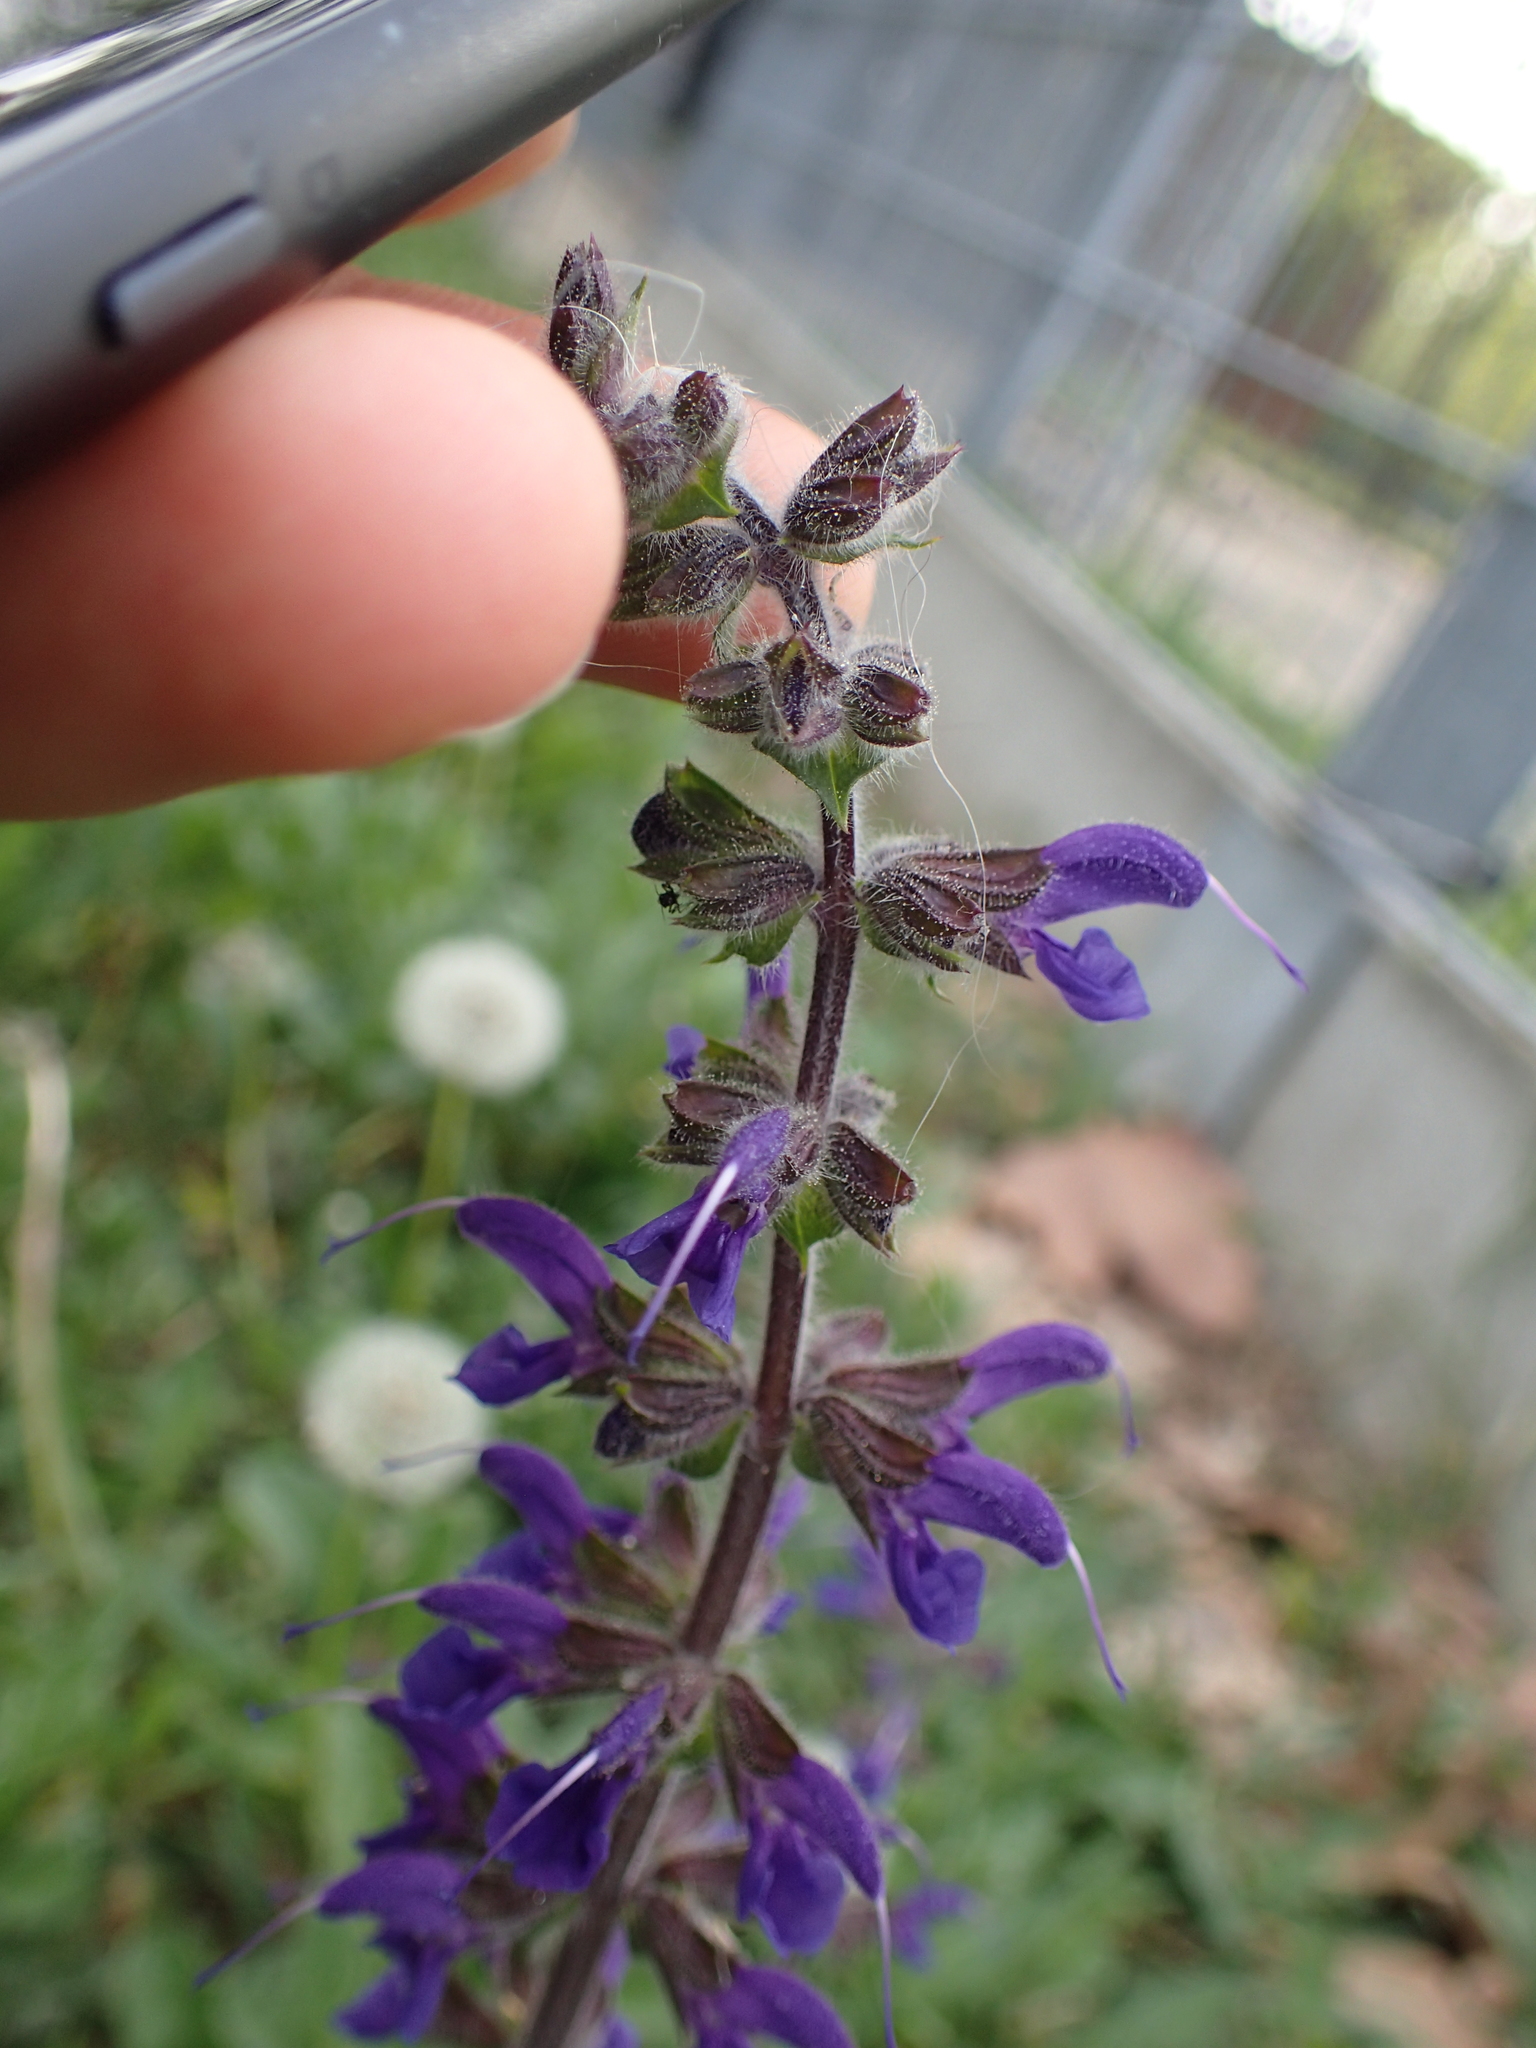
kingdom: Plantae
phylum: Tracheophyta
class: Magnoliopsida
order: Lamiales
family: Lamiaceae
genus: Salvia
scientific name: Salvia pratensis
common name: Meadow sage
